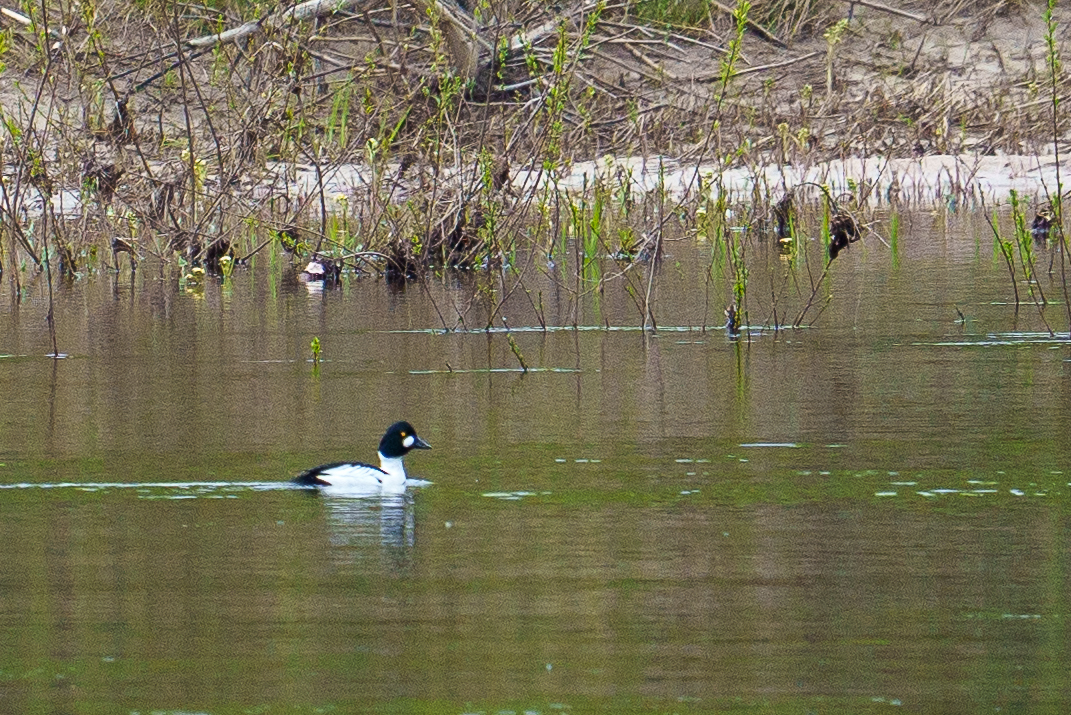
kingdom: Animalia
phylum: Chordata
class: Aves
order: Anseriformes
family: Anatidae
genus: Bucephala
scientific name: Bucephala clangula
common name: Common goldeneye
